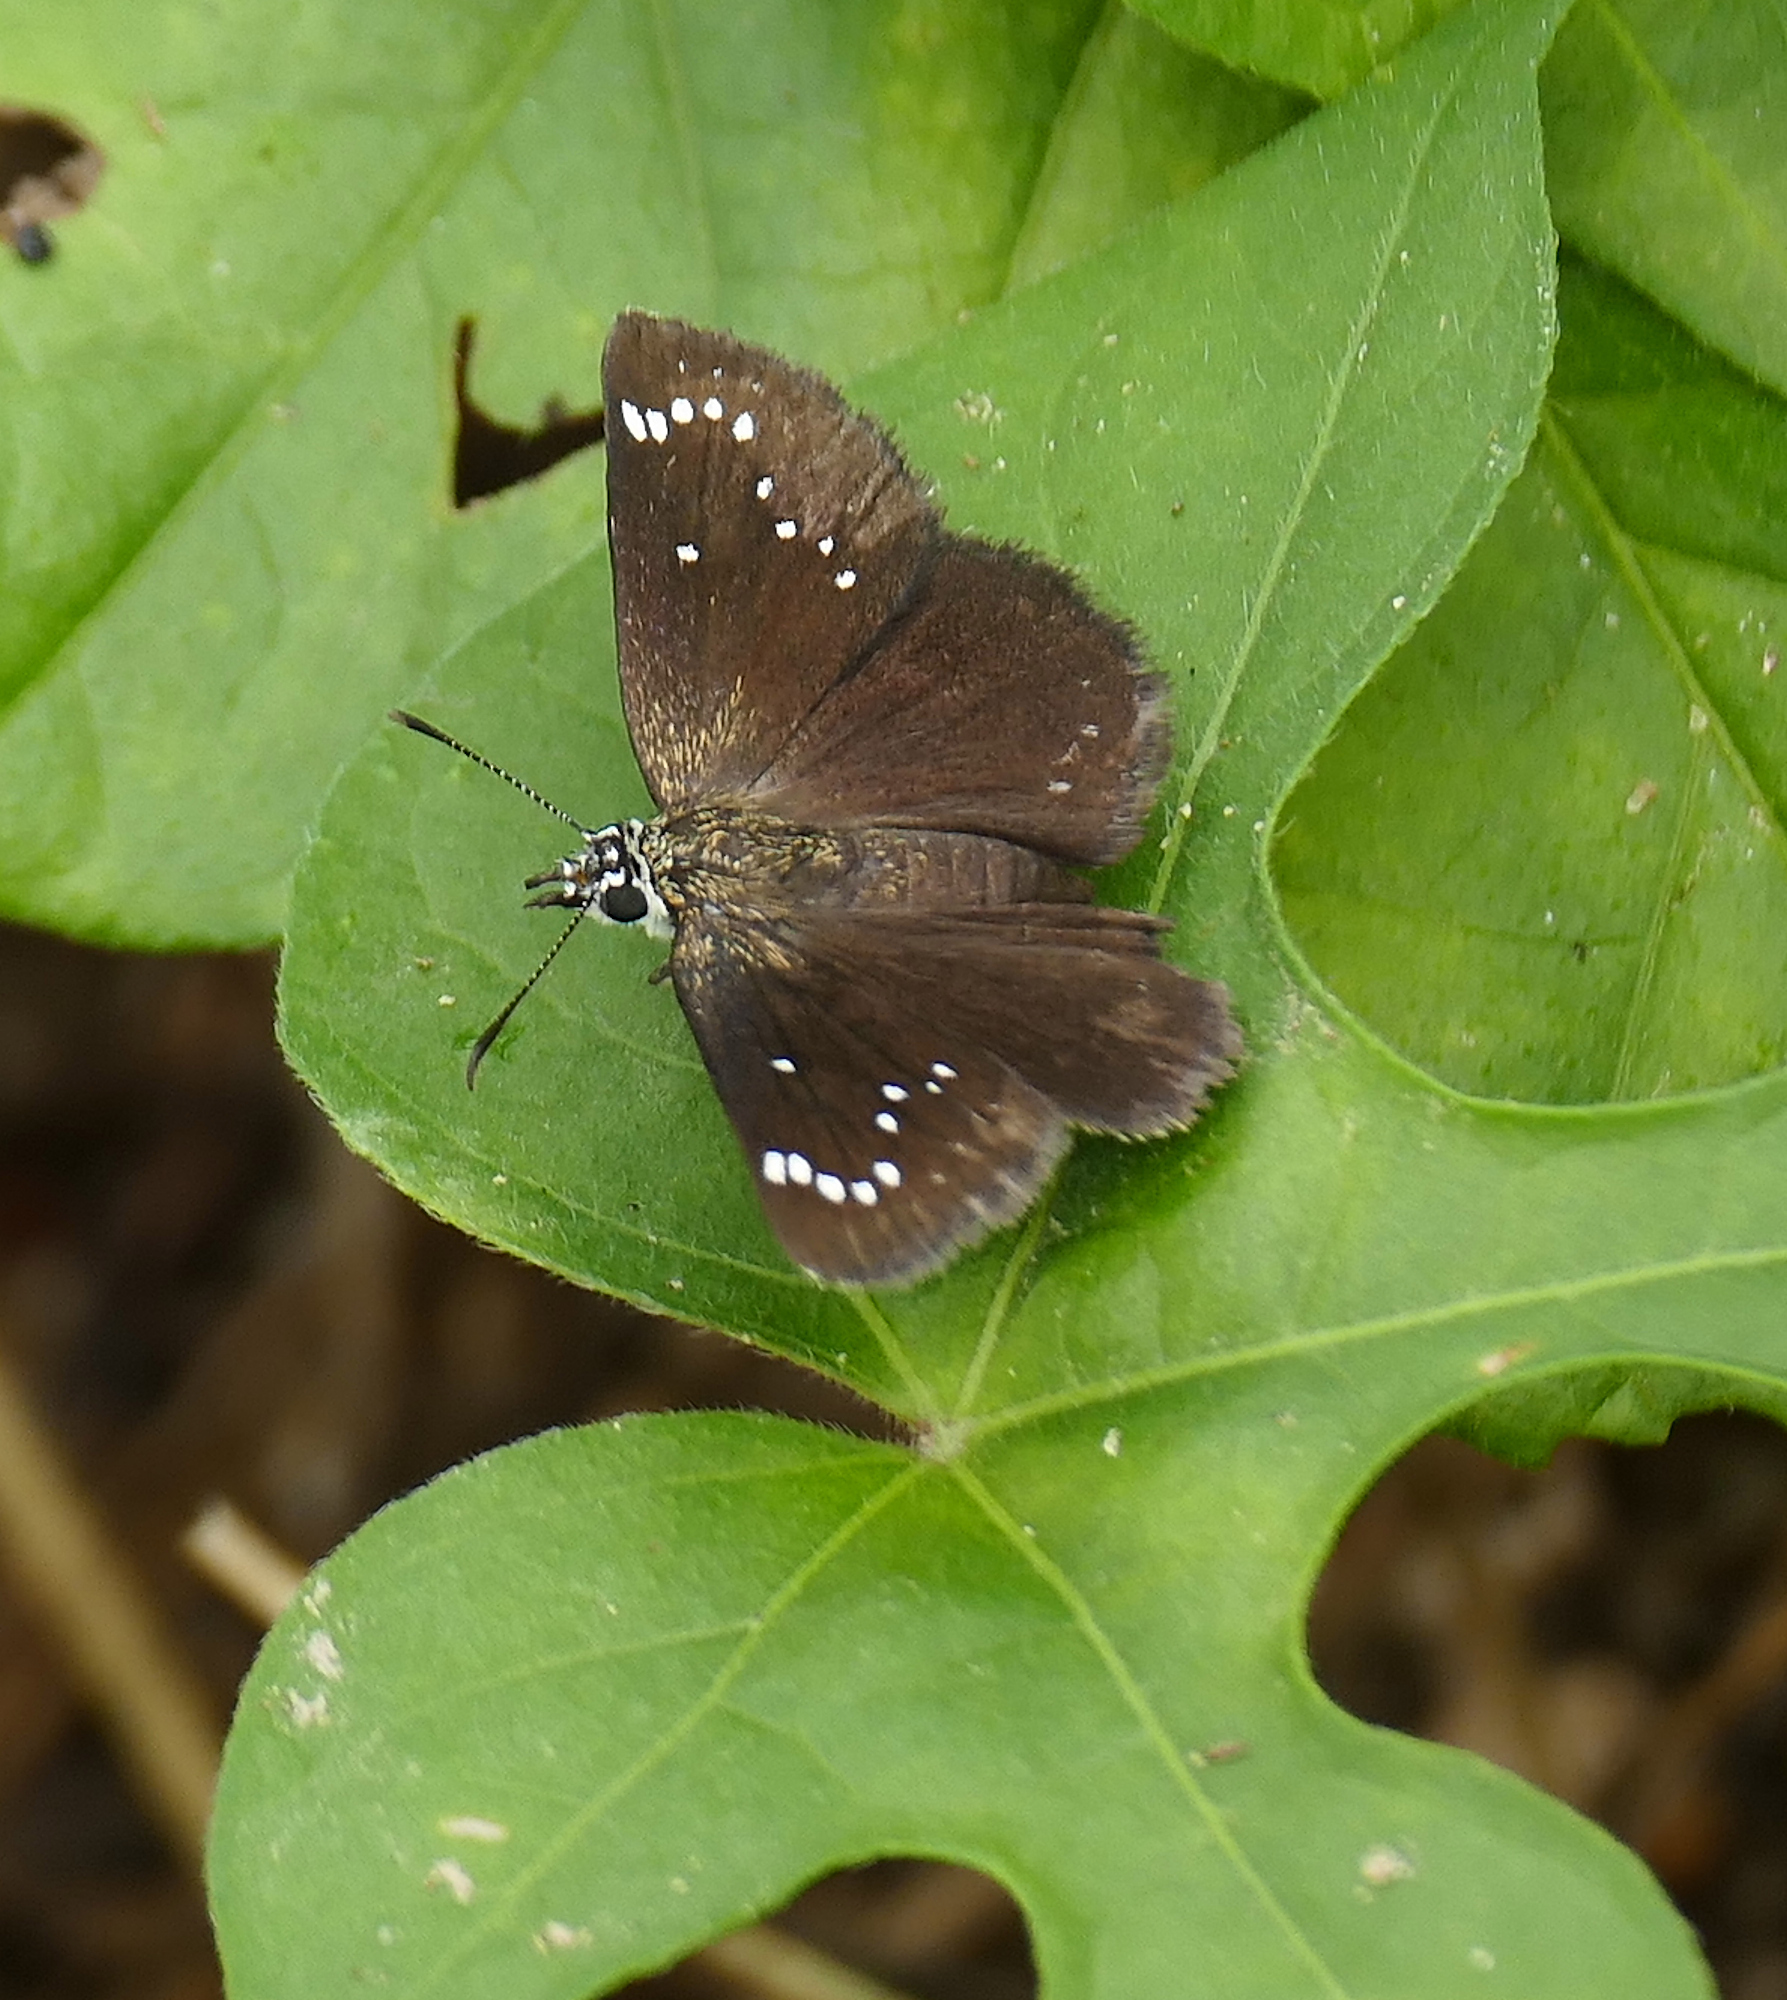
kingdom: Animalia
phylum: Arthropoda
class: Insecta
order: Lepidoptera
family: Hesperiidae
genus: Pholisora
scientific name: Pholisora catullus
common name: Common sootywing
